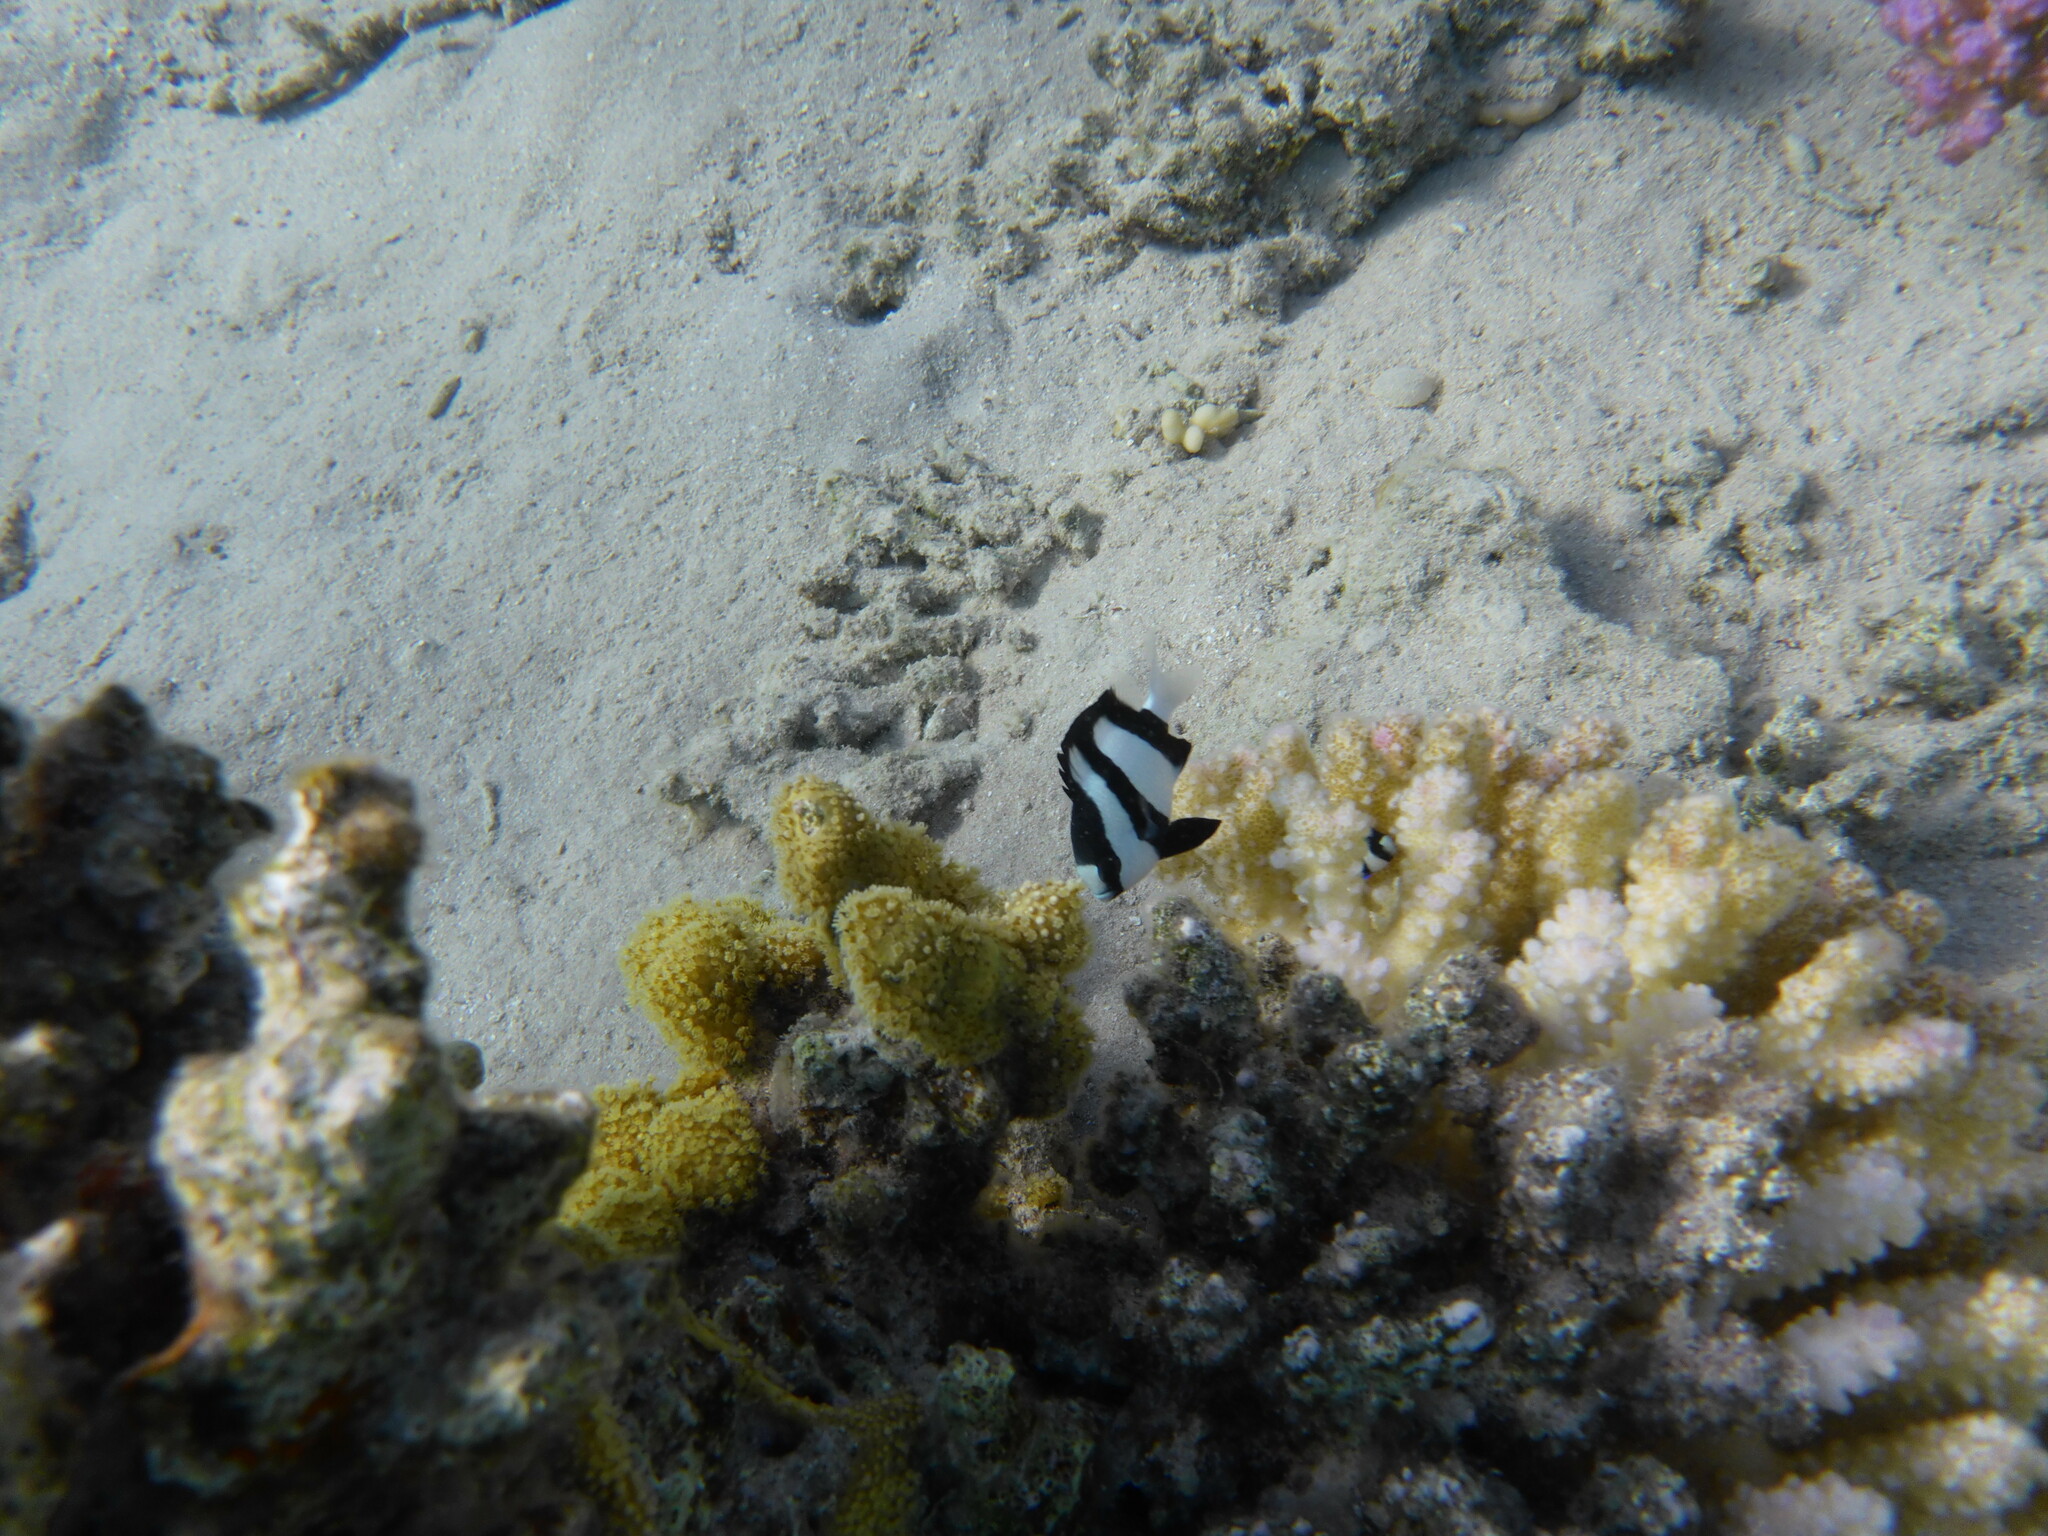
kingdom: Animalia
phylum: Chordata
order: Perciformes
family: Pomacentridae
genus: Dascyllus
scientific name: Dascyllus abudafur
